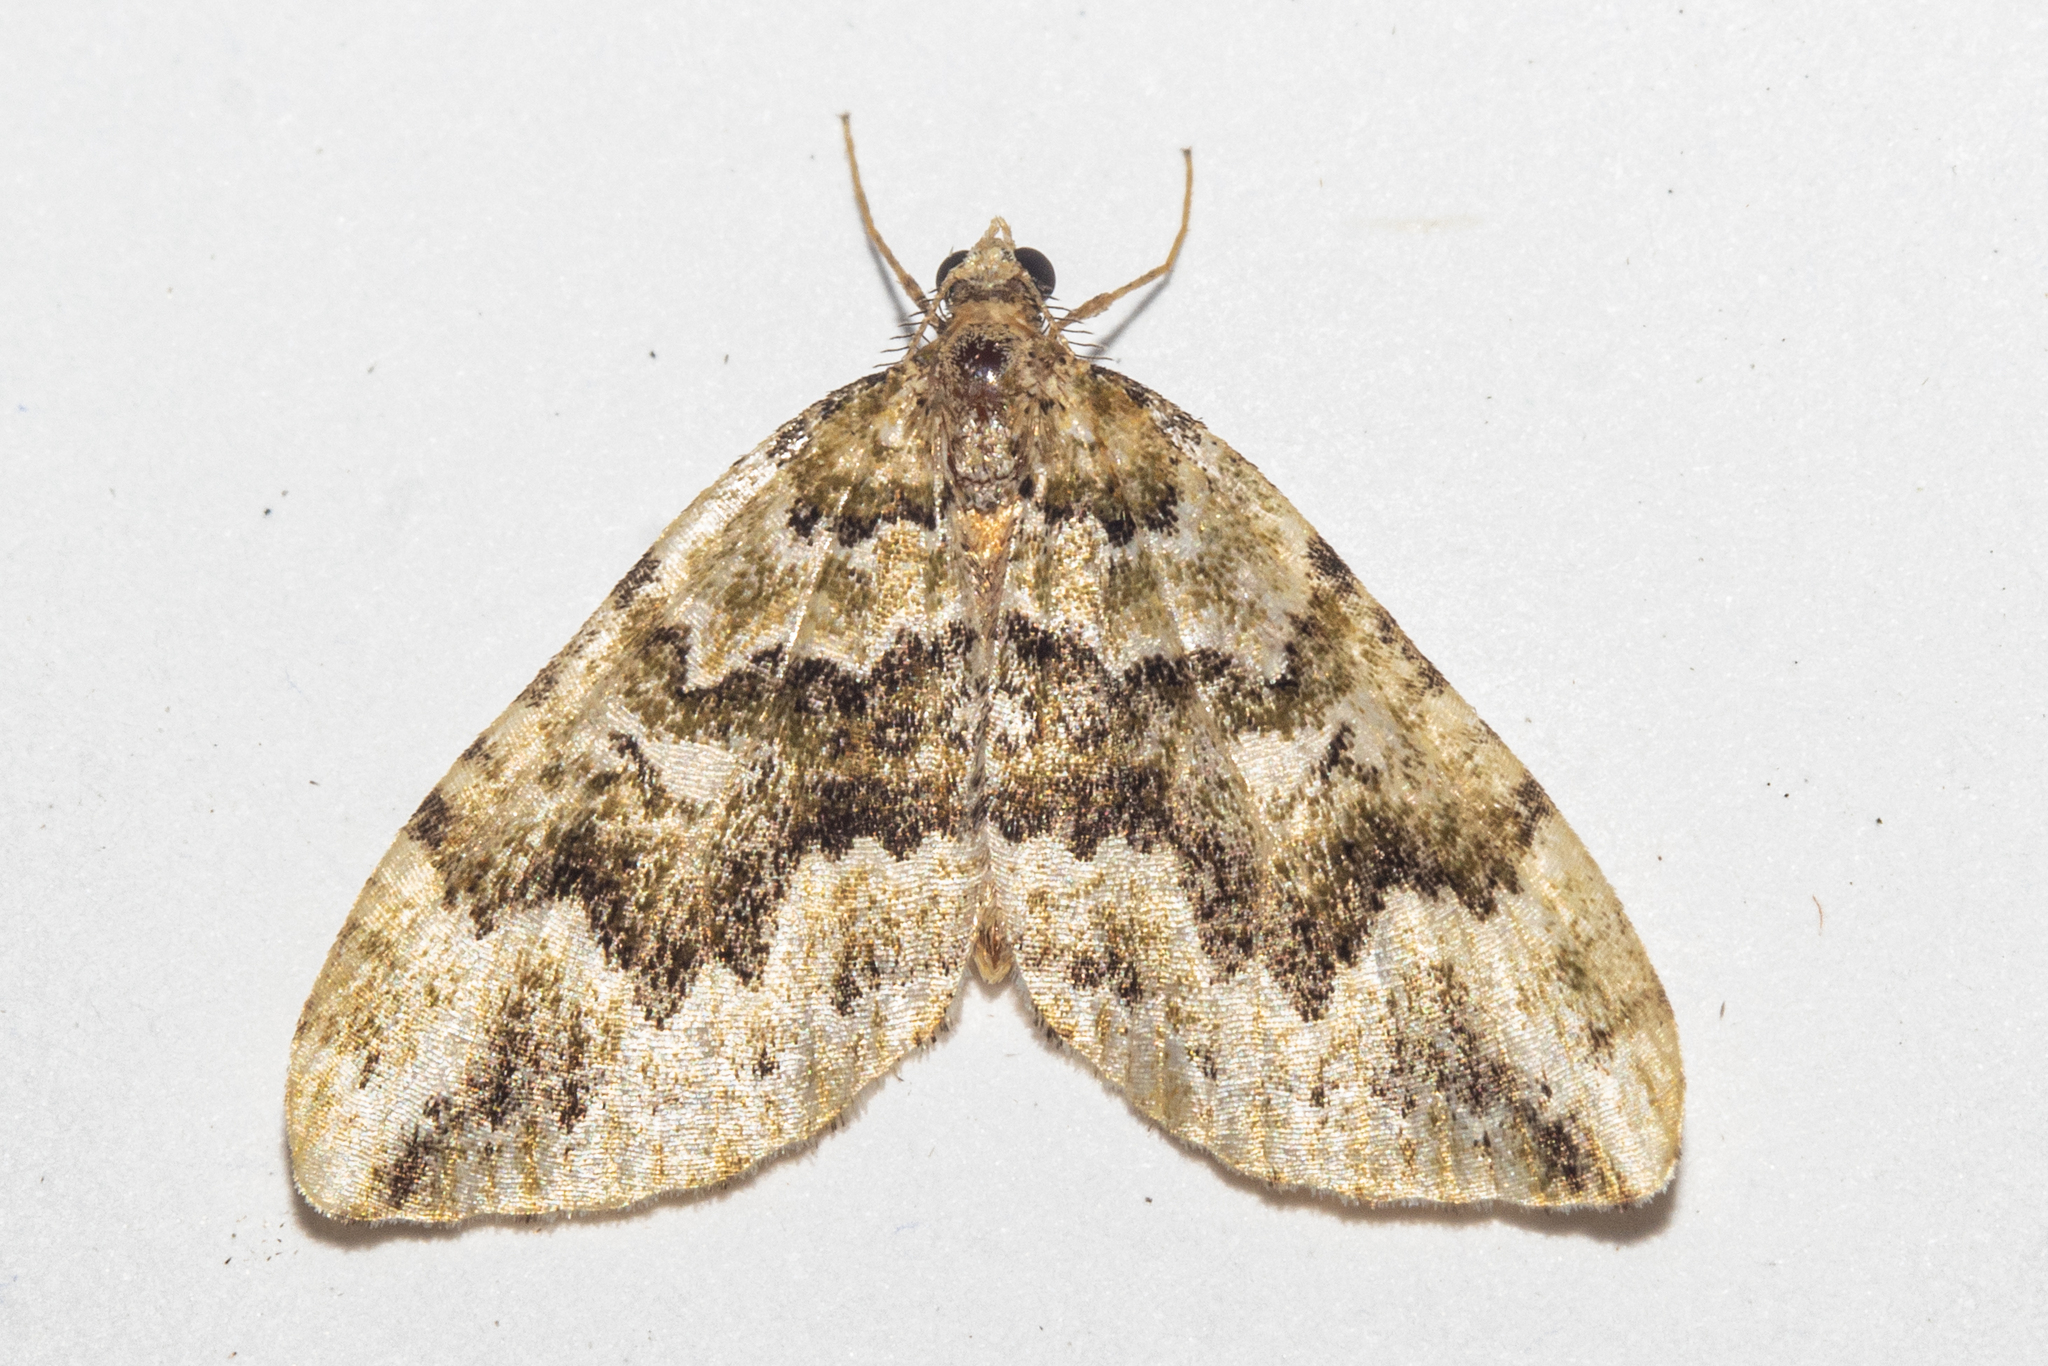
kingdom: Animalia
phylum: Arthropoda
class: Insecta
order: Lepidoptera
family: Geometridae
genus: Asaphodes
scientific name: Asaphodes beata
